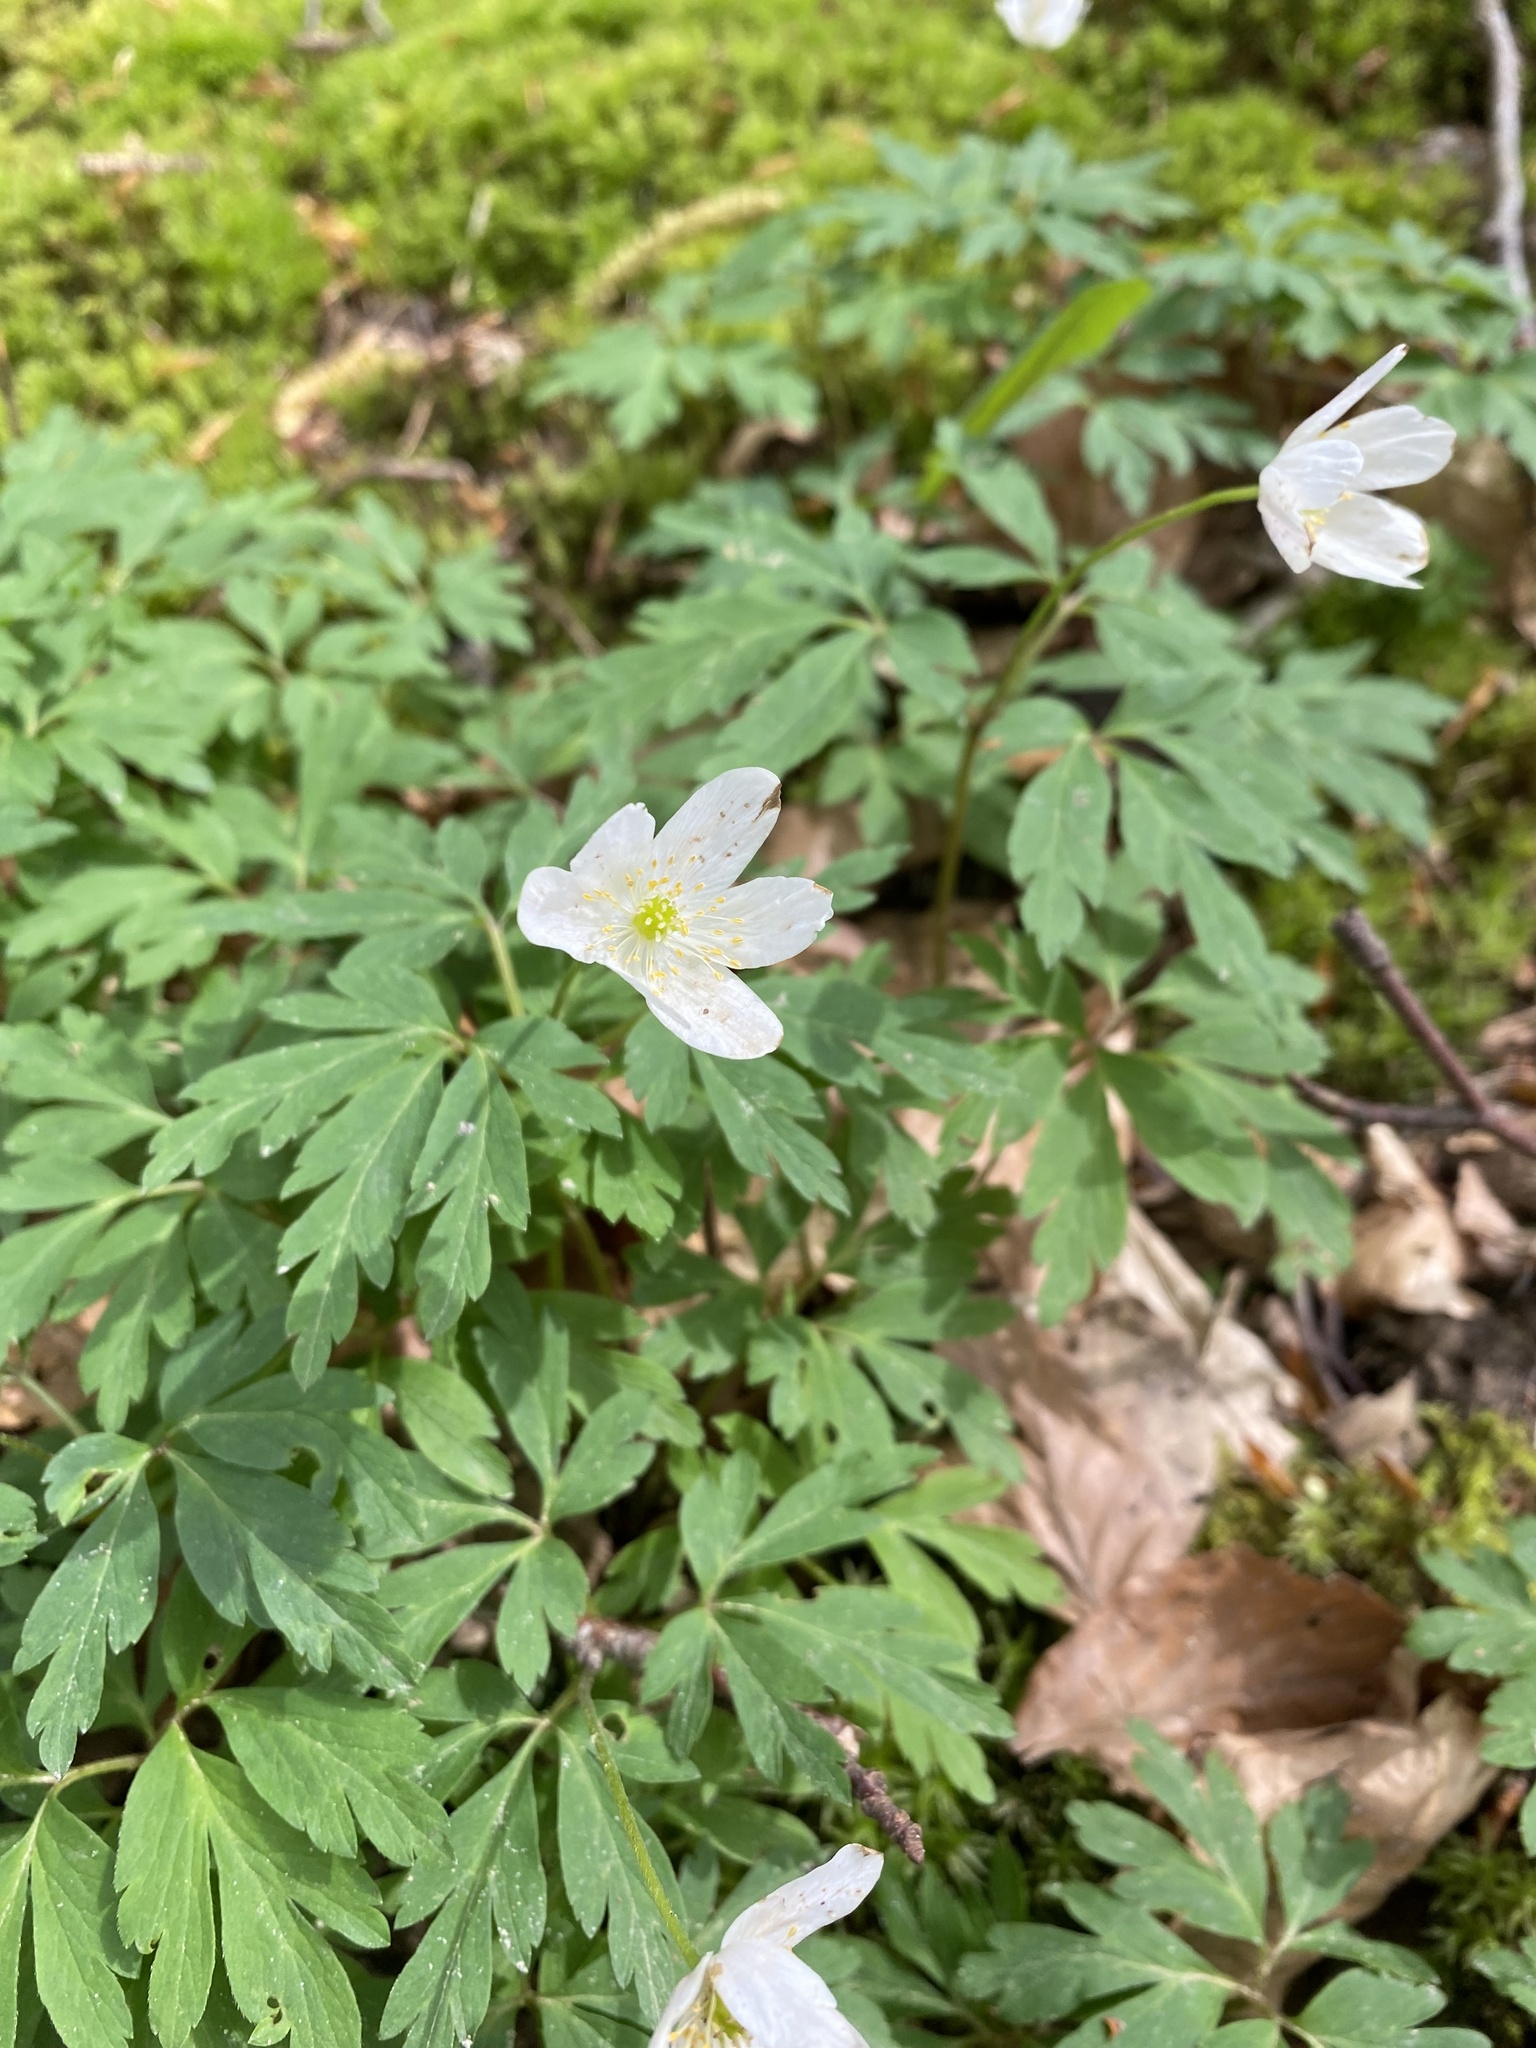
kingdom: Plantae
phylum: Tracheophyta
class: Magnoliopsida
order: Ranunculales
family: Ranunculaceae
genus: Anemone
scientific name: Anemone nemorosa
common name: Wood anemone
